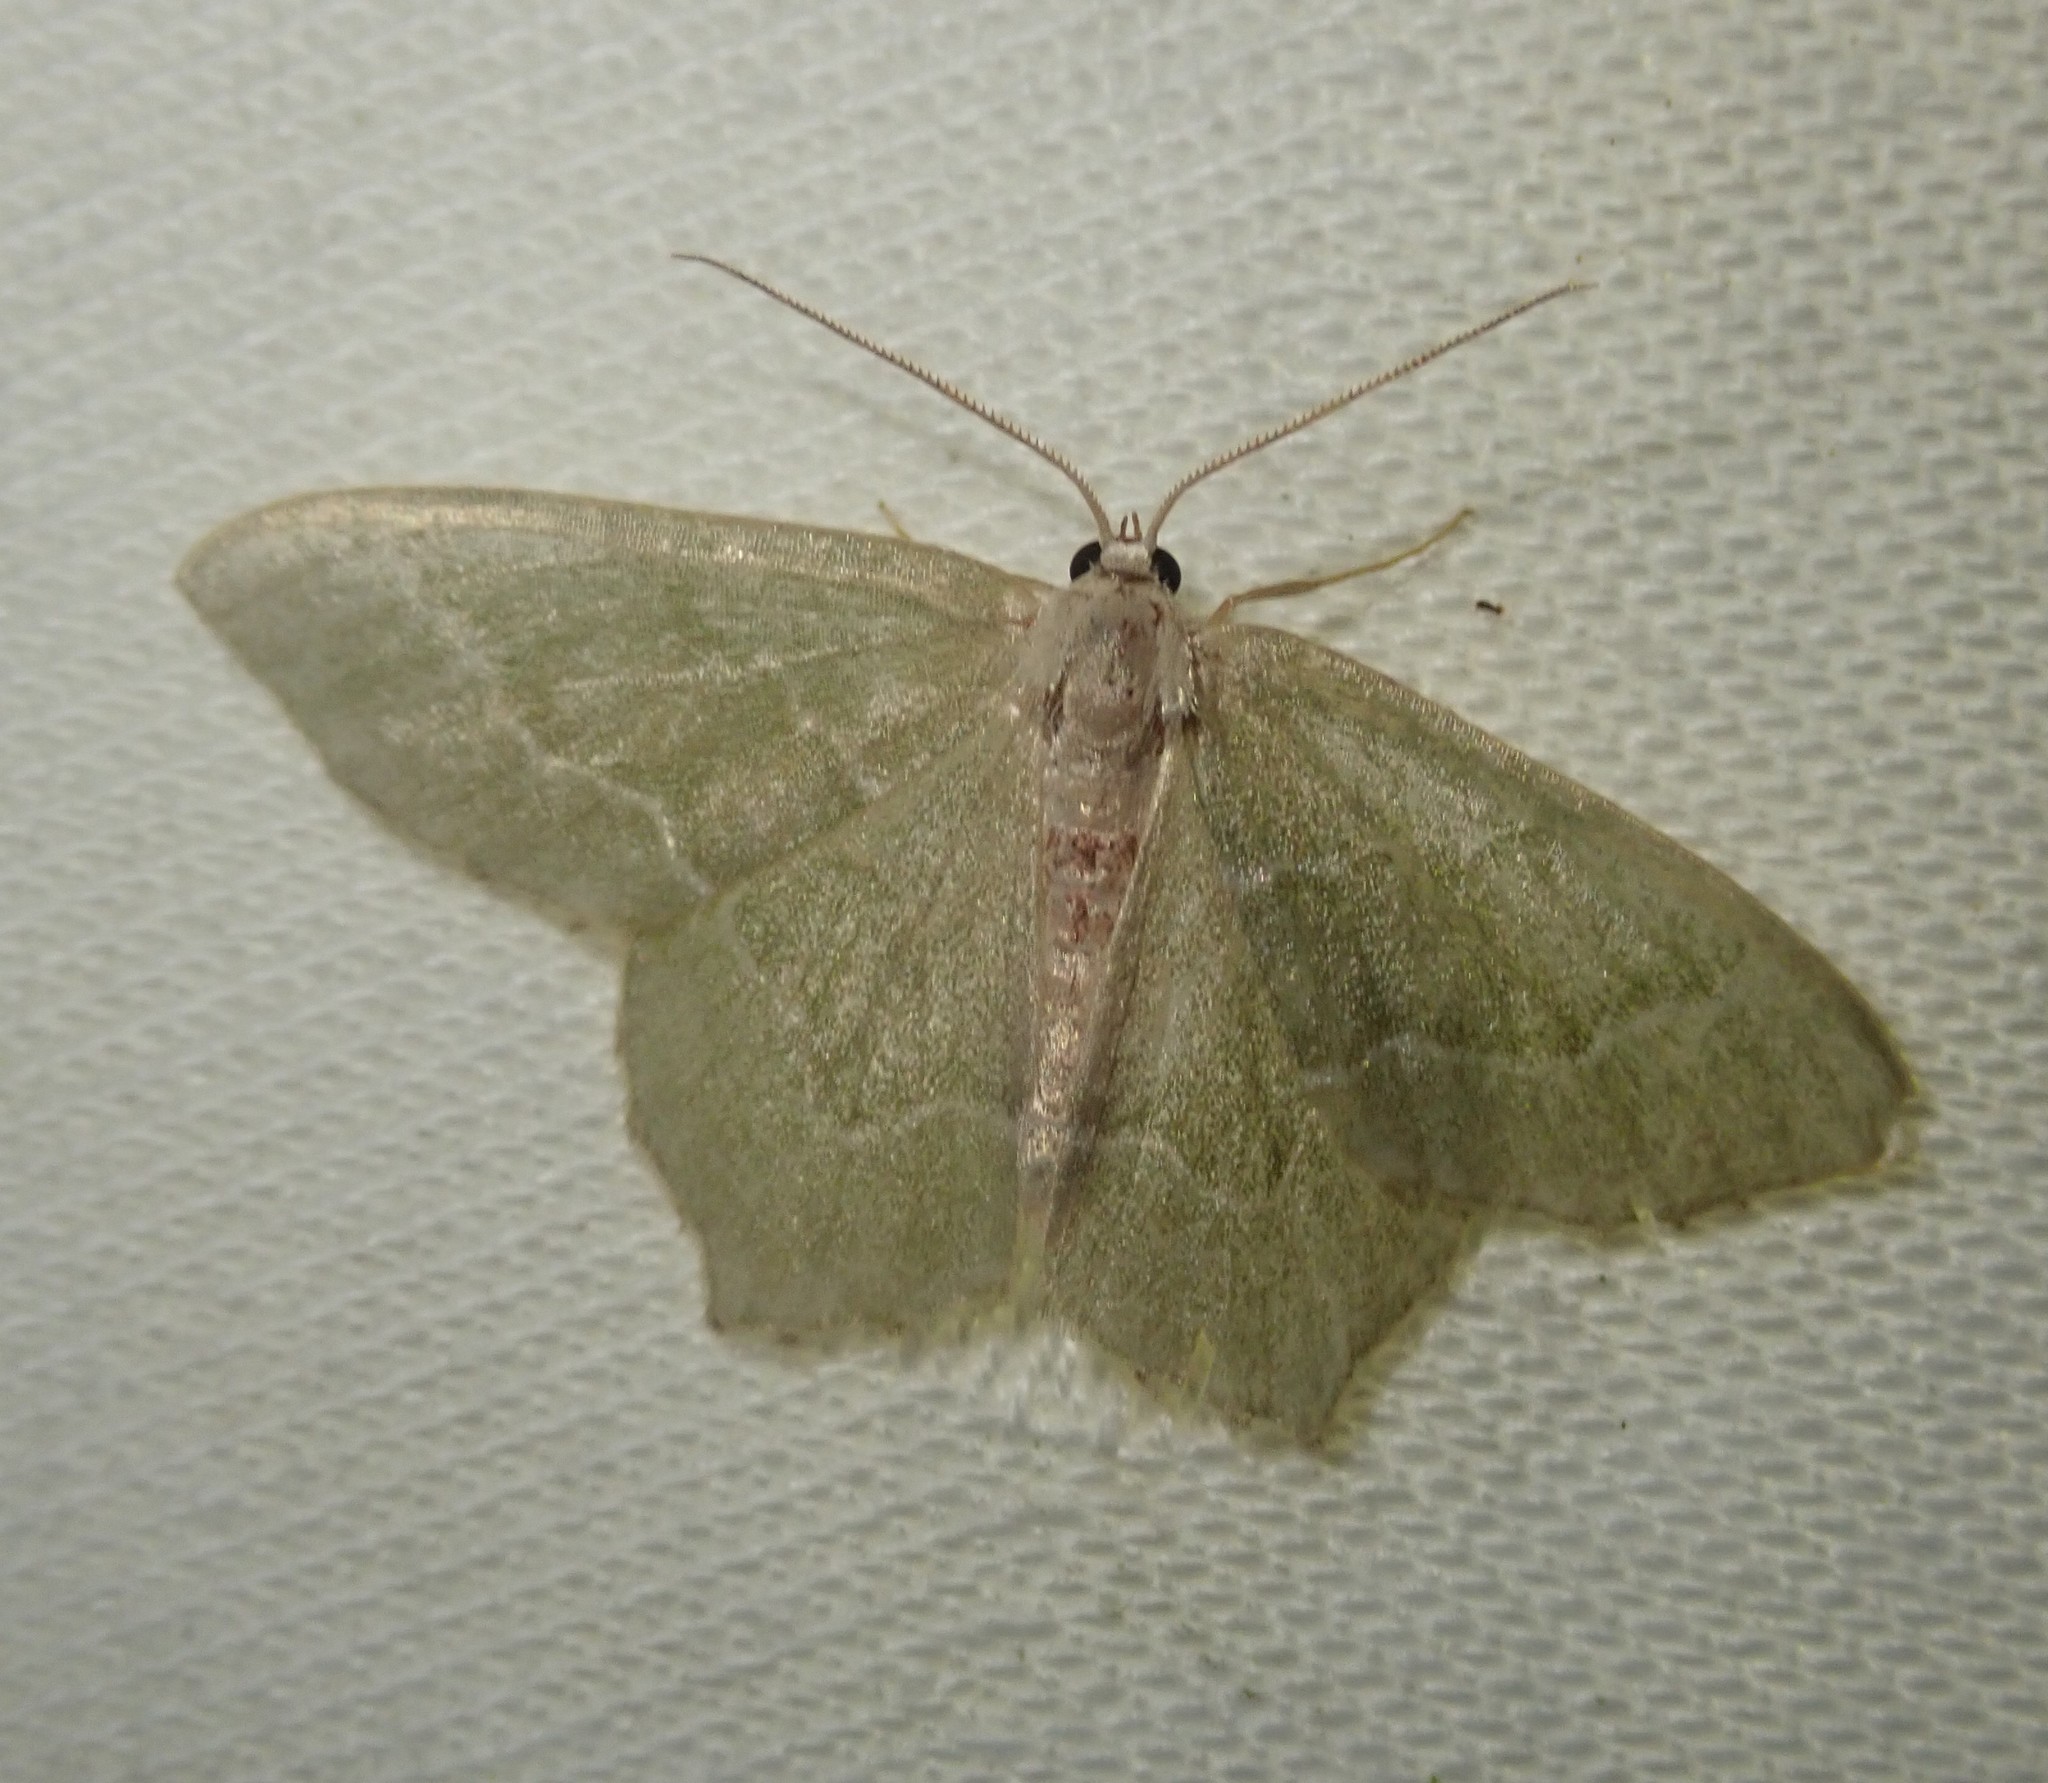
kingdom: Animalia
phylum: Arthropoda
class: Insecta
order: Lepidoptera
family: Geometridae
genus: Hemithea
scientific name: Hemithea aestivaria
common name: Common emerald
